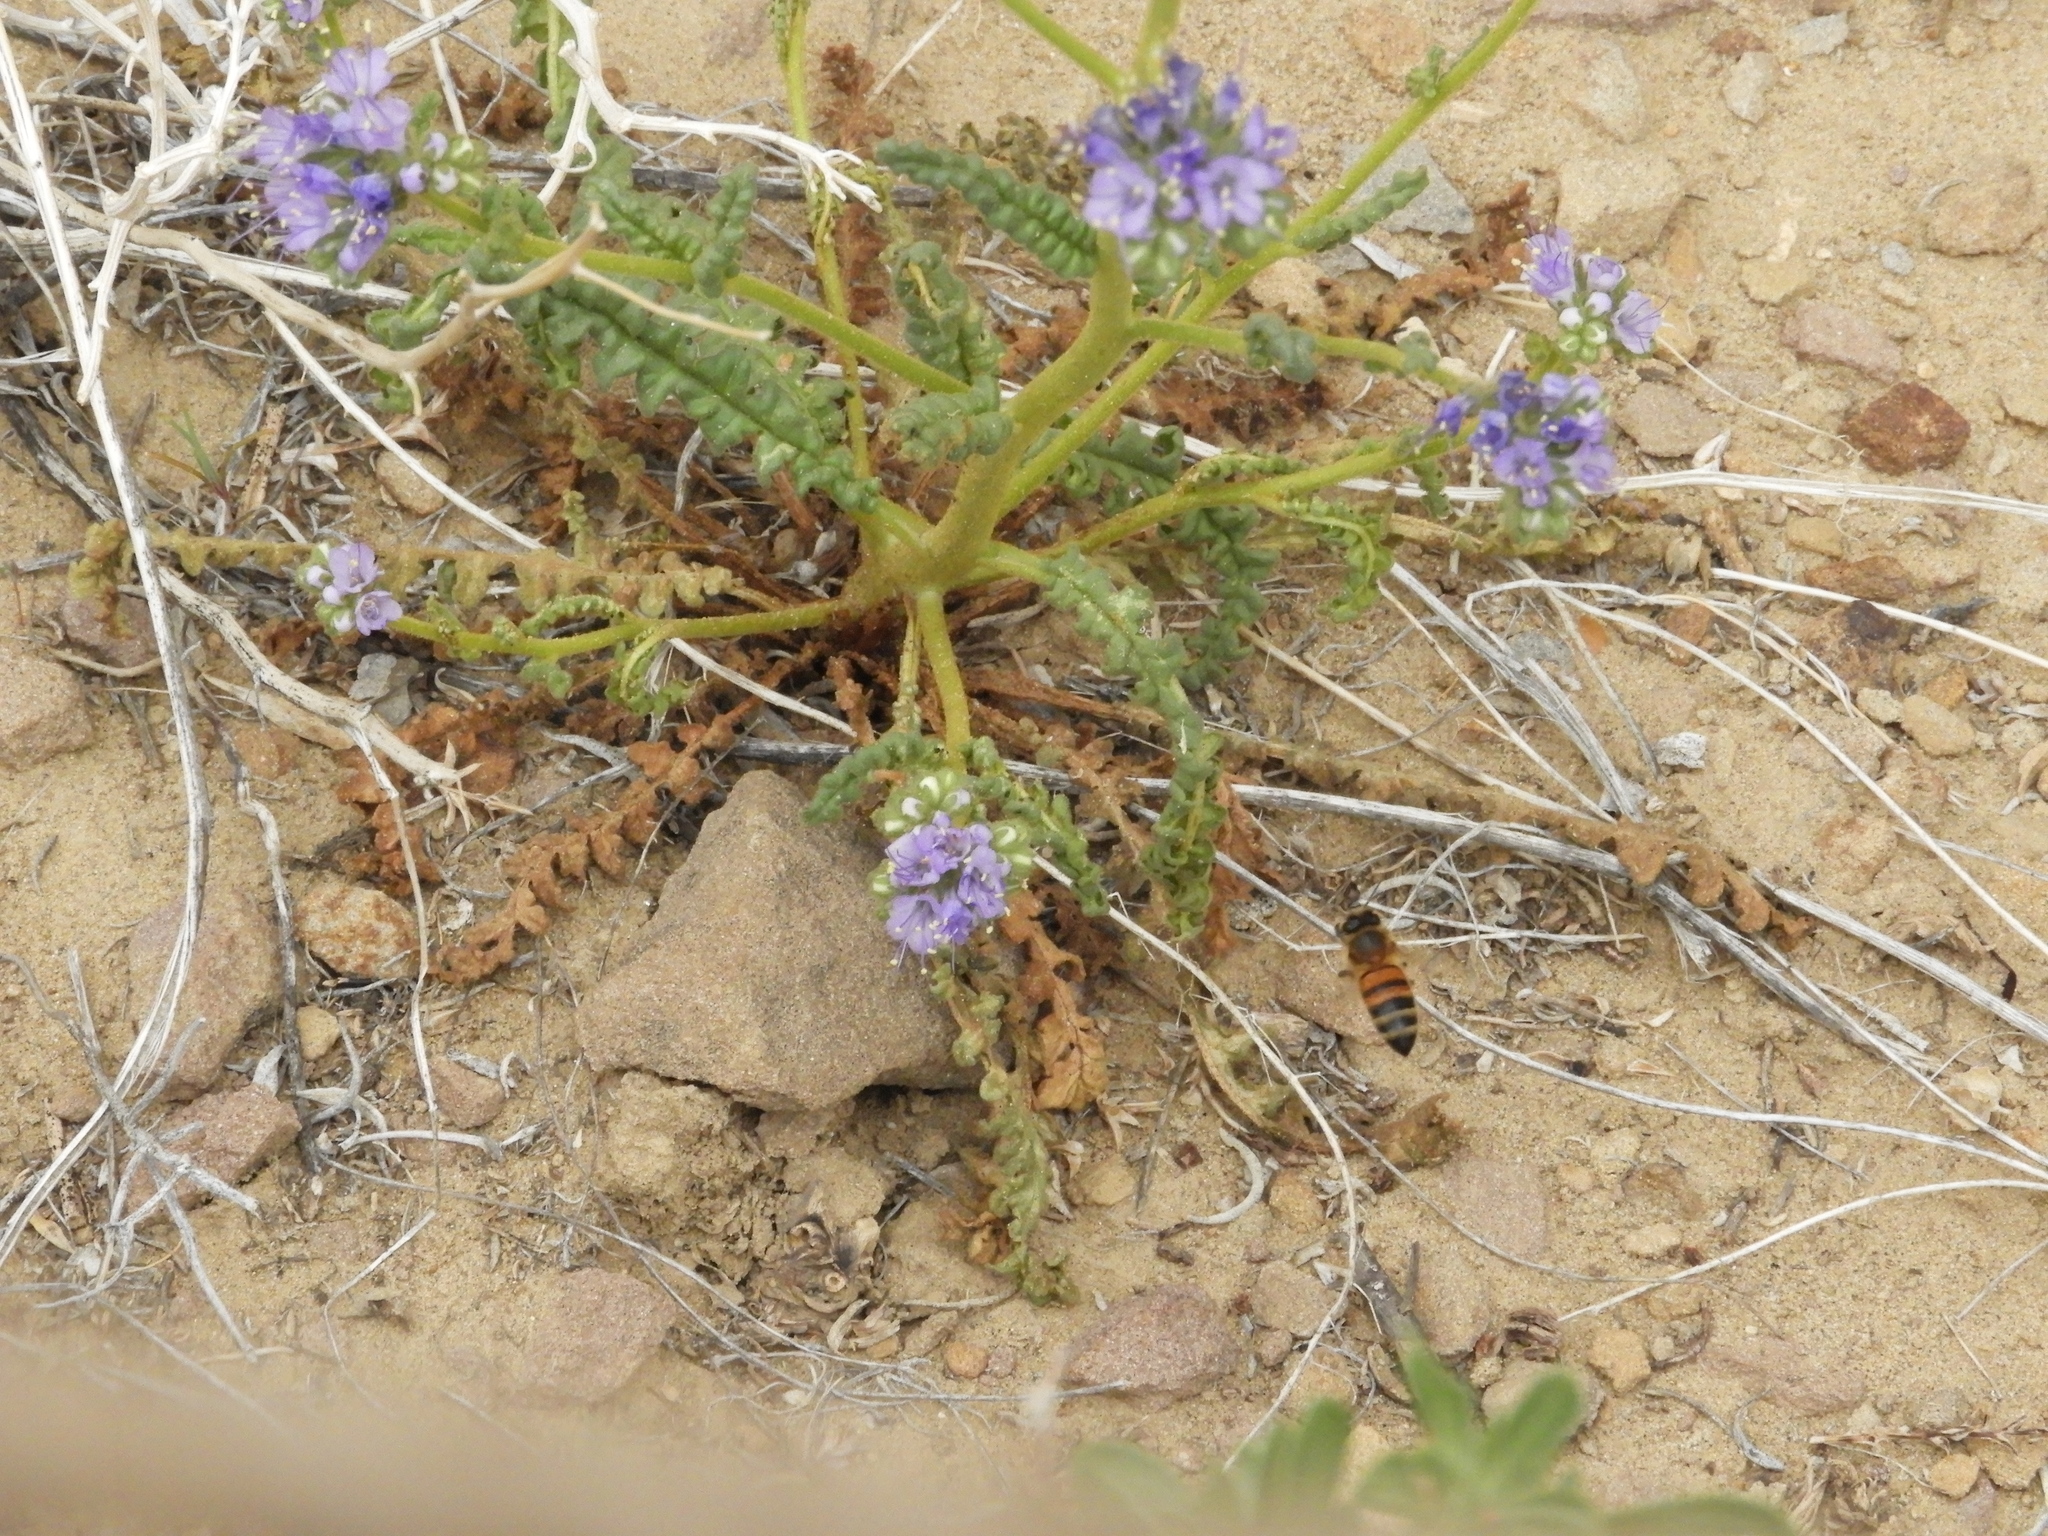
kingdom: Animalia
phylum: Arthropoda
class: Insecta
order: Hymenoptera
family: Apidae
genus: Apis
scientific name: Apis mellifera
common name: Honey bee
